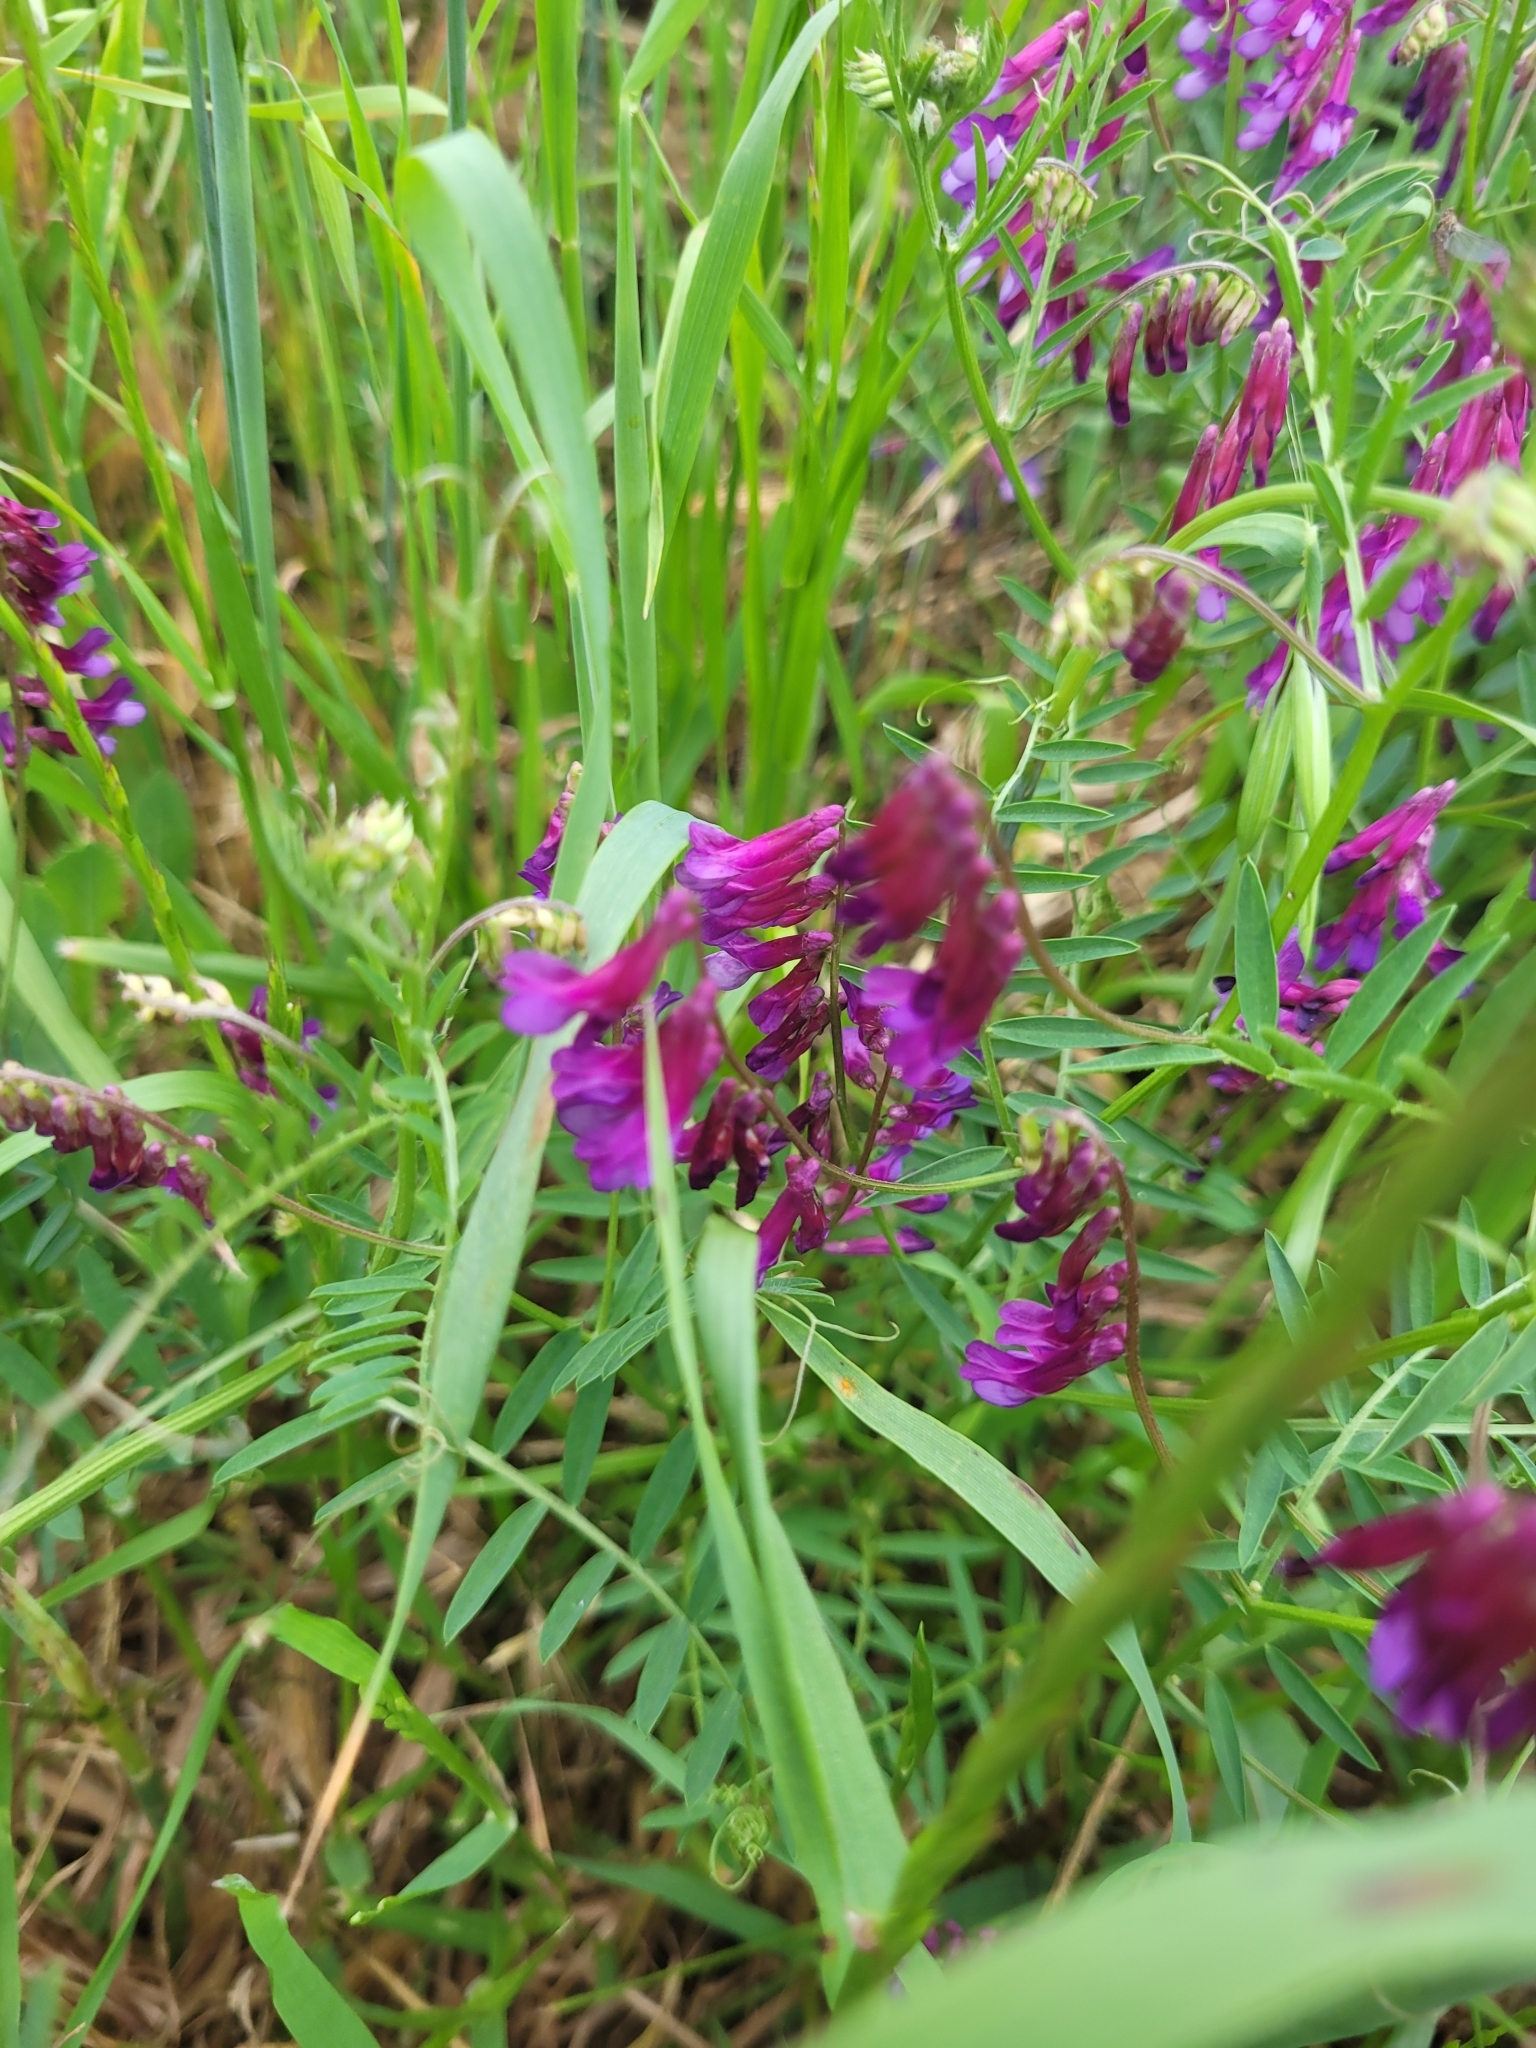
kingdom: Plantae
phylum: Tracheophyta
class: Magnoliopsida
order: Fabales
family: Fabaceae
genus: Vicia
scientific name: Vicia villosa
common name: Fodder vetch
